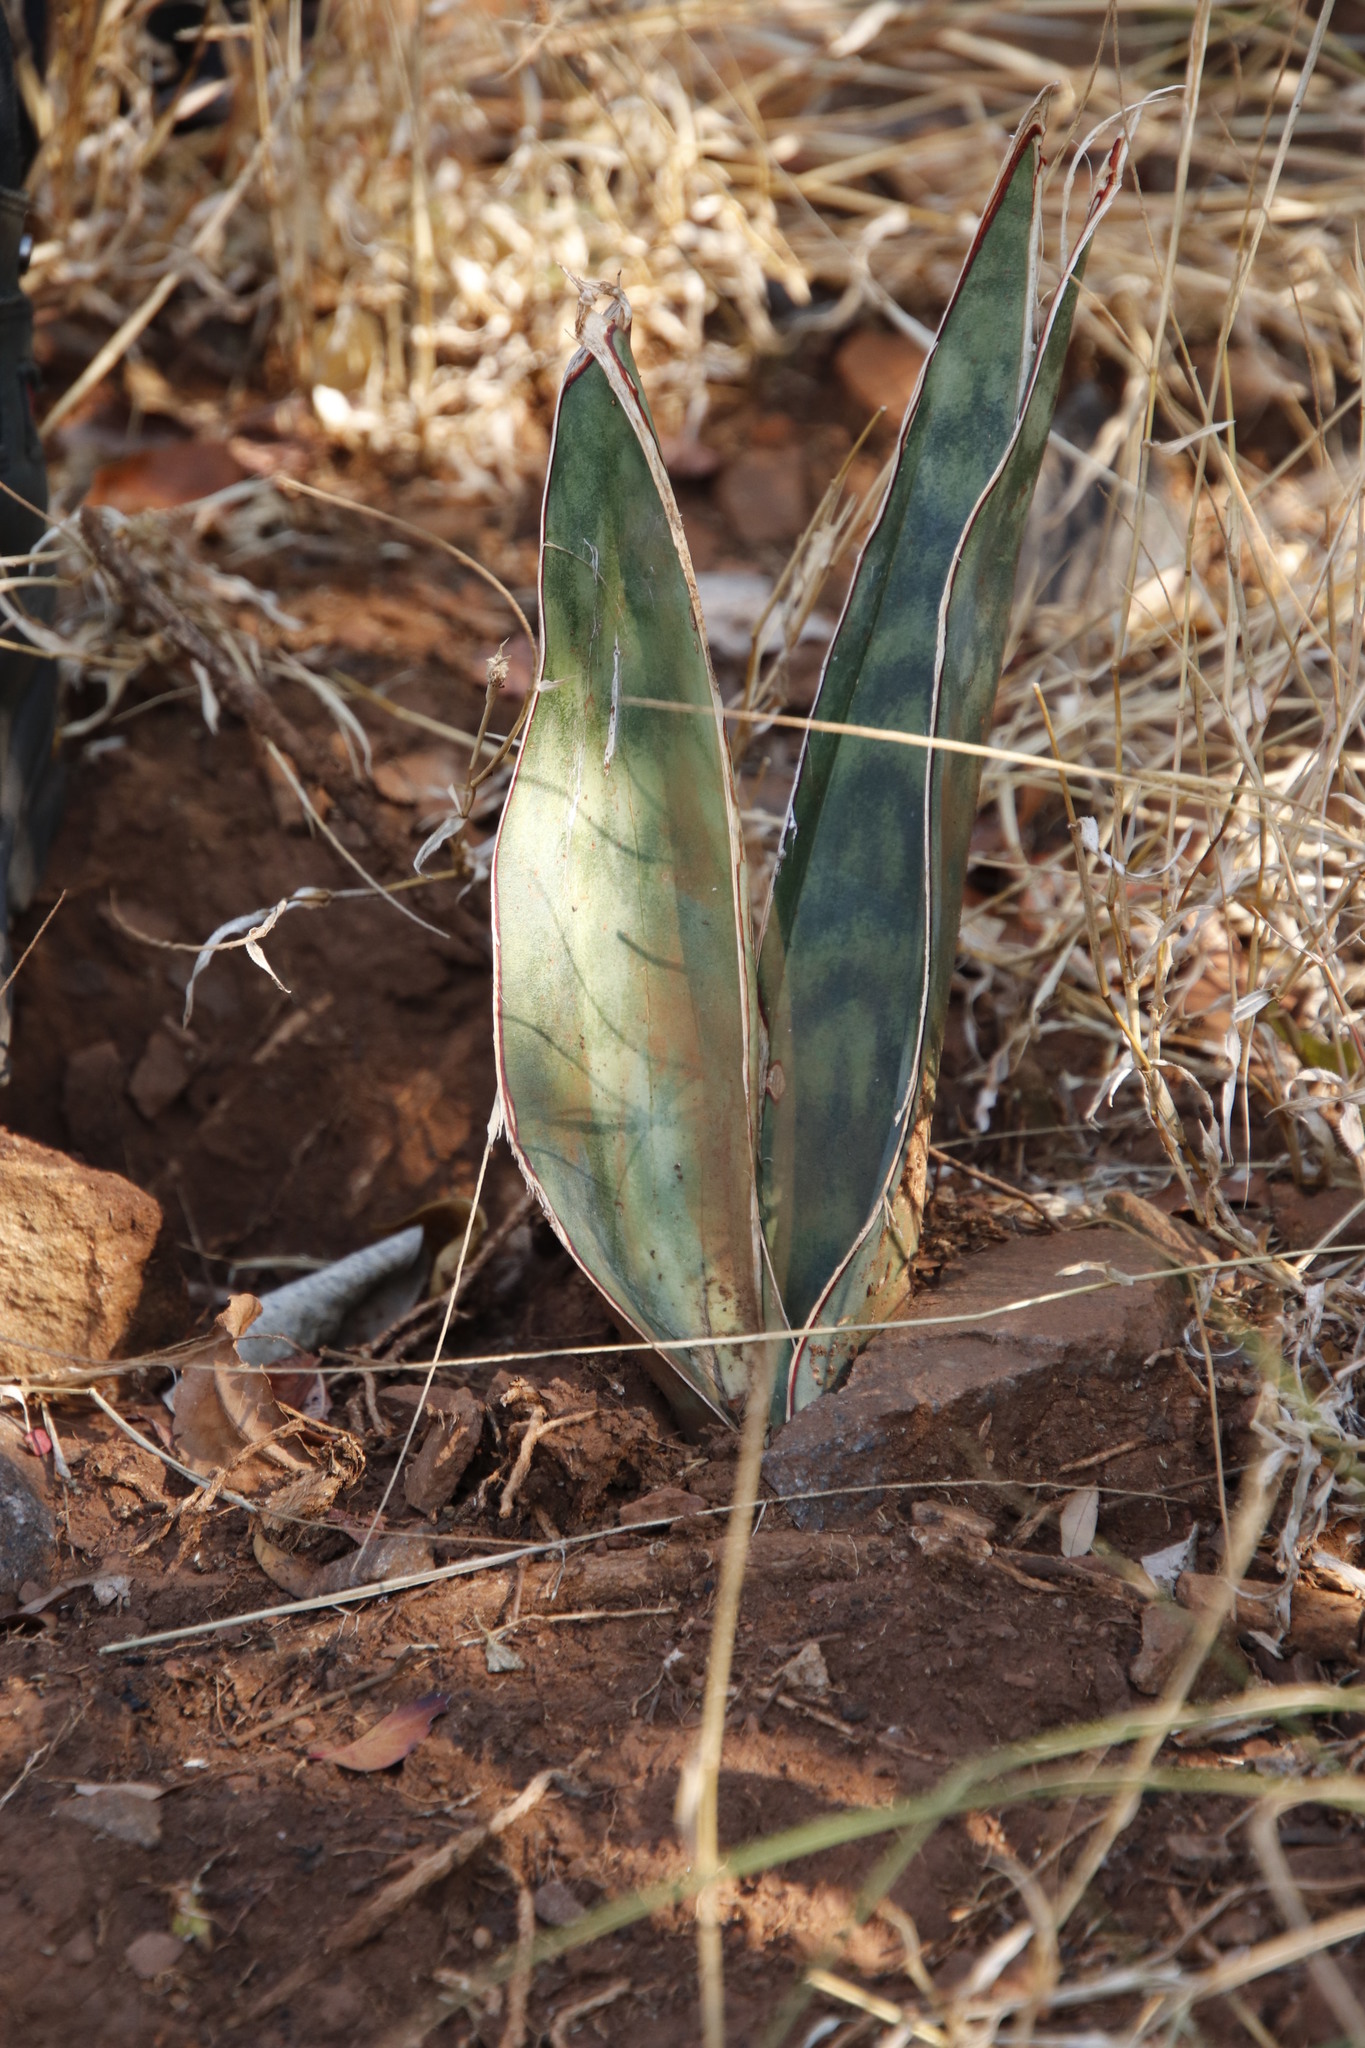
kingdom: Plantae
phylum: Tracheophyta
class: Liliopsida
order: Asparagales
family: Asparagaceae
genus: Dracaena
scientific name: Dracaena hyacinthoides
